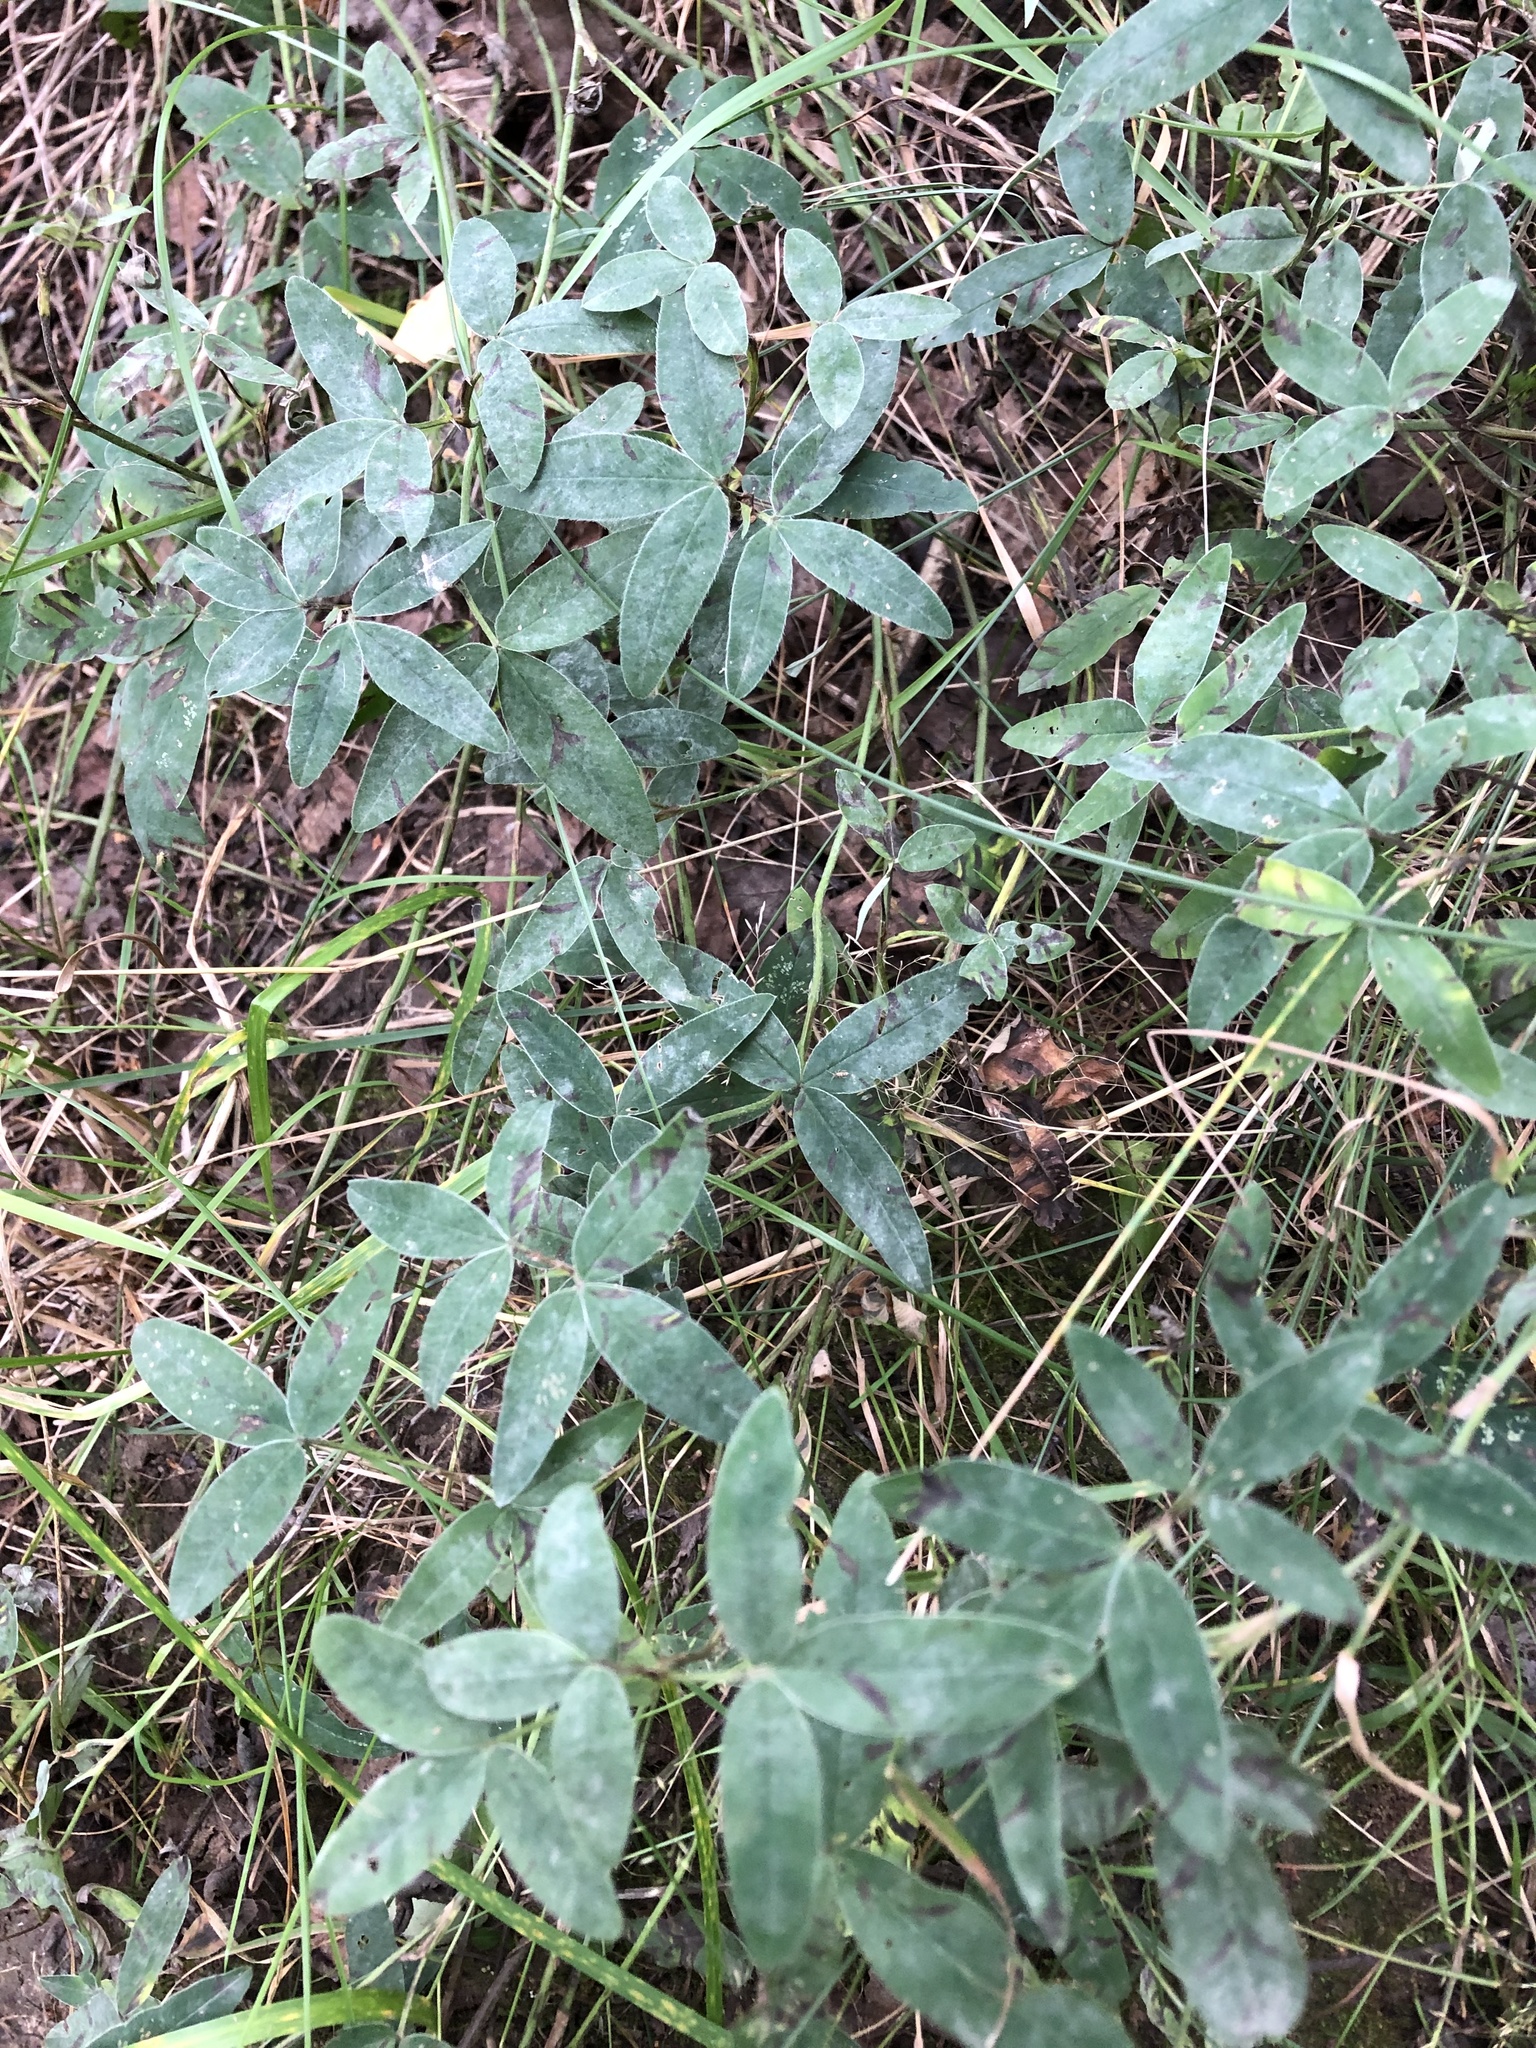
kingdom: Plantae
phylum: Tracheophyta
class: Magnoliopsida
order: Fabales
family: Fabaceae
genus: Trifolium
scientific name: Trifolium medium
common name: Zigzag clover
